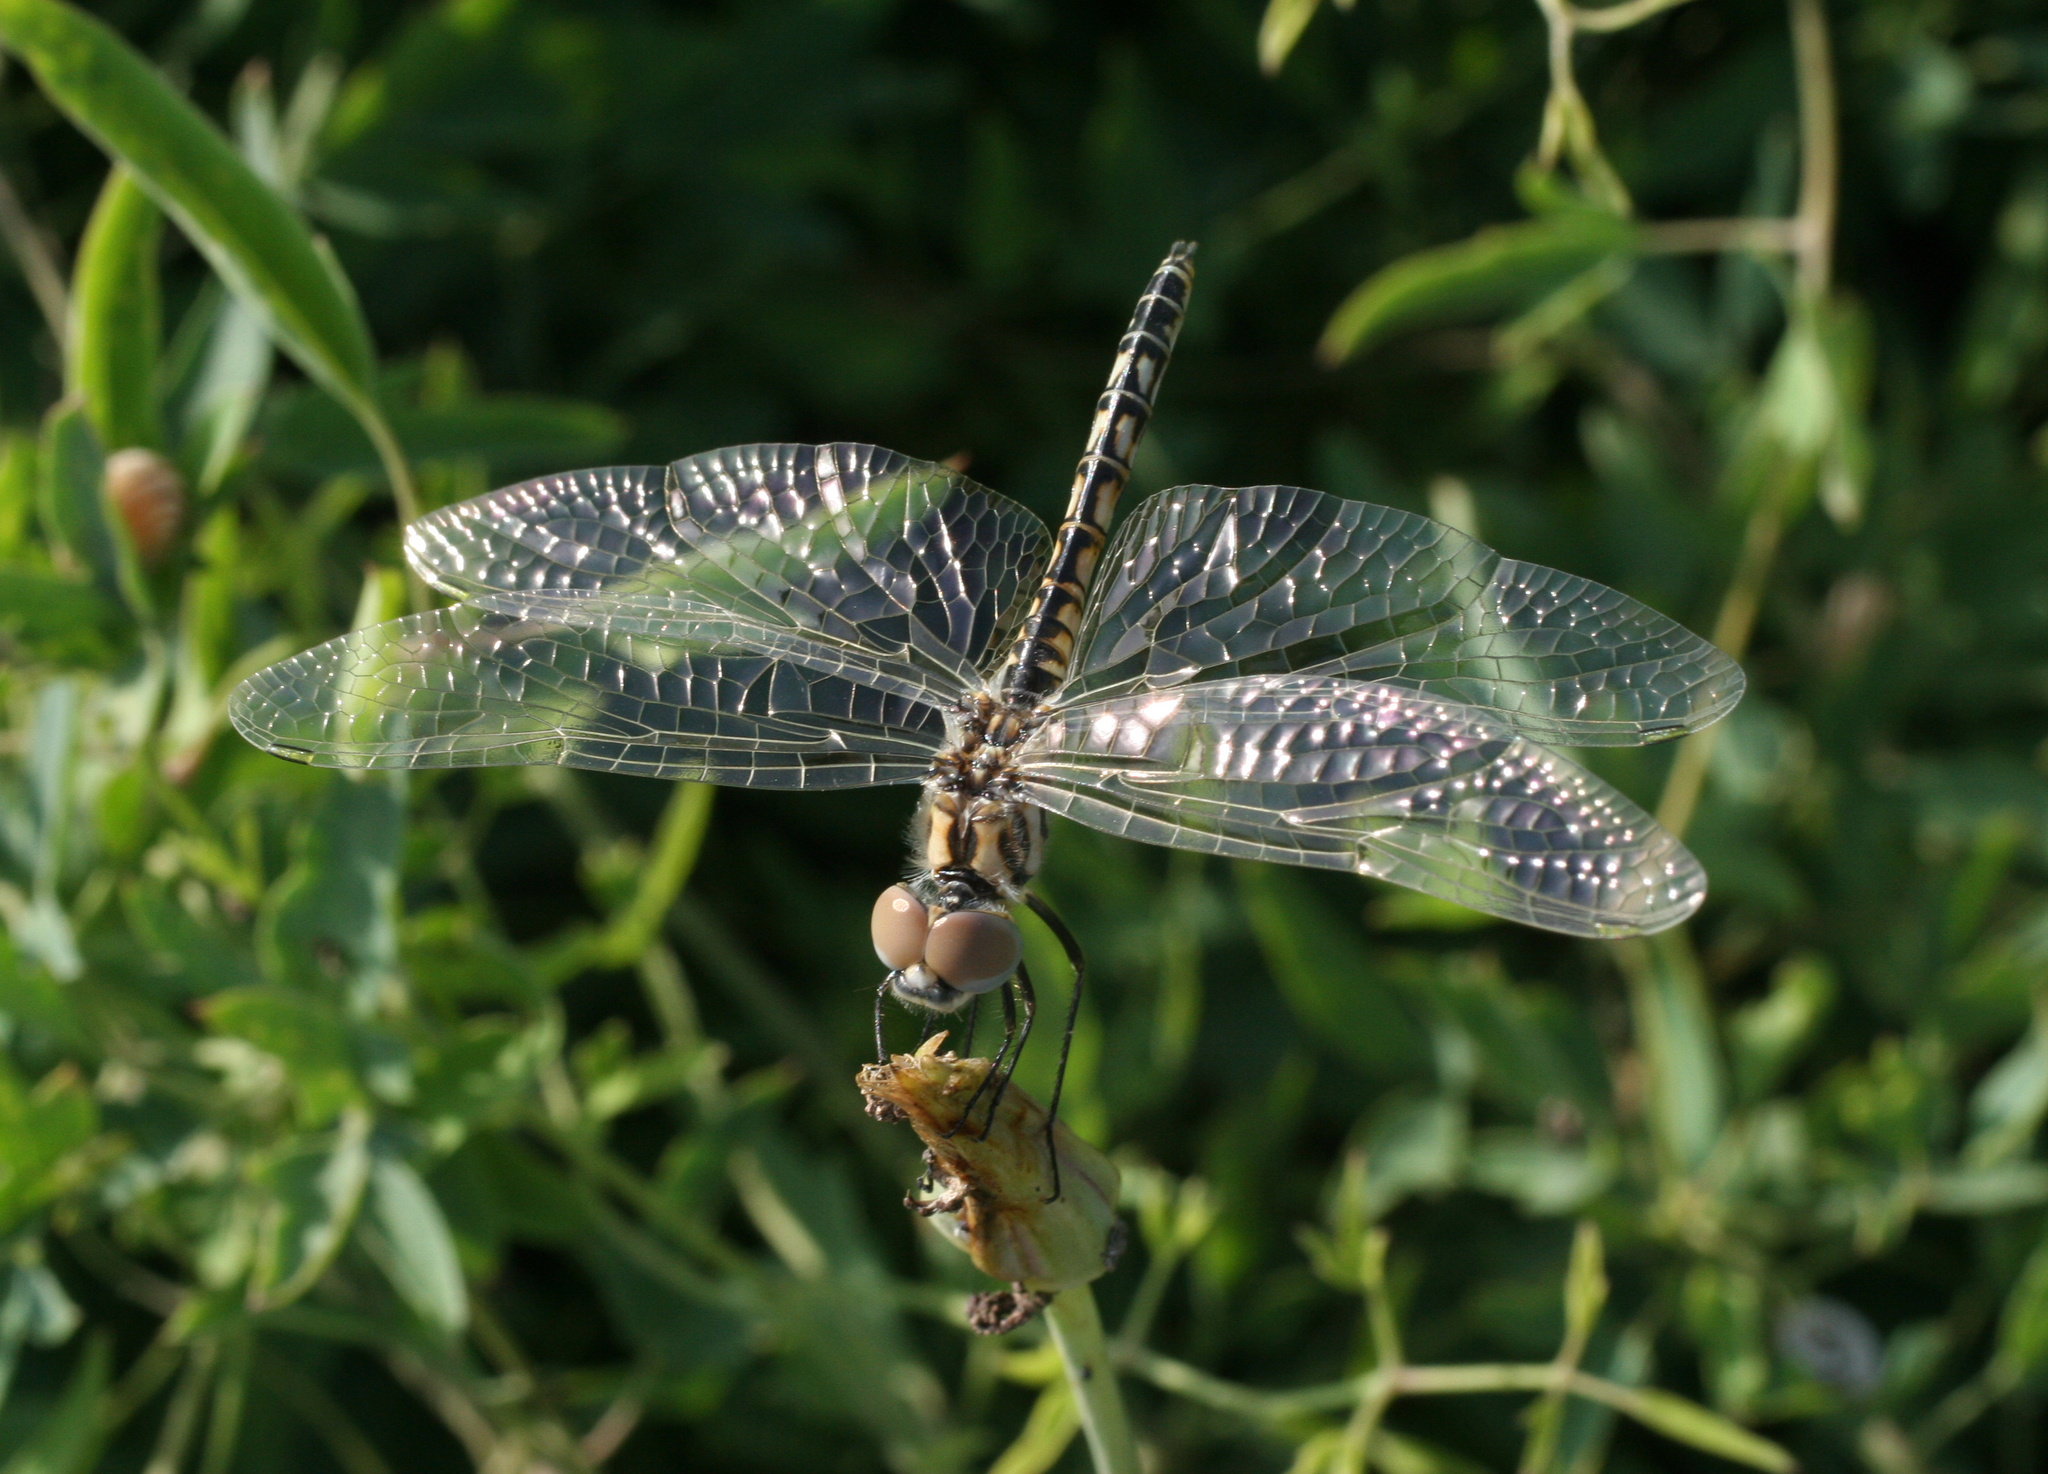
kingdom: Animalia
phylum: Arthropoda
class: Insecta
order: Odonata
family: Libellulidae
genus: Selysiothemis
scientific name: Selysiothemis nigra
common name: Black pennant
